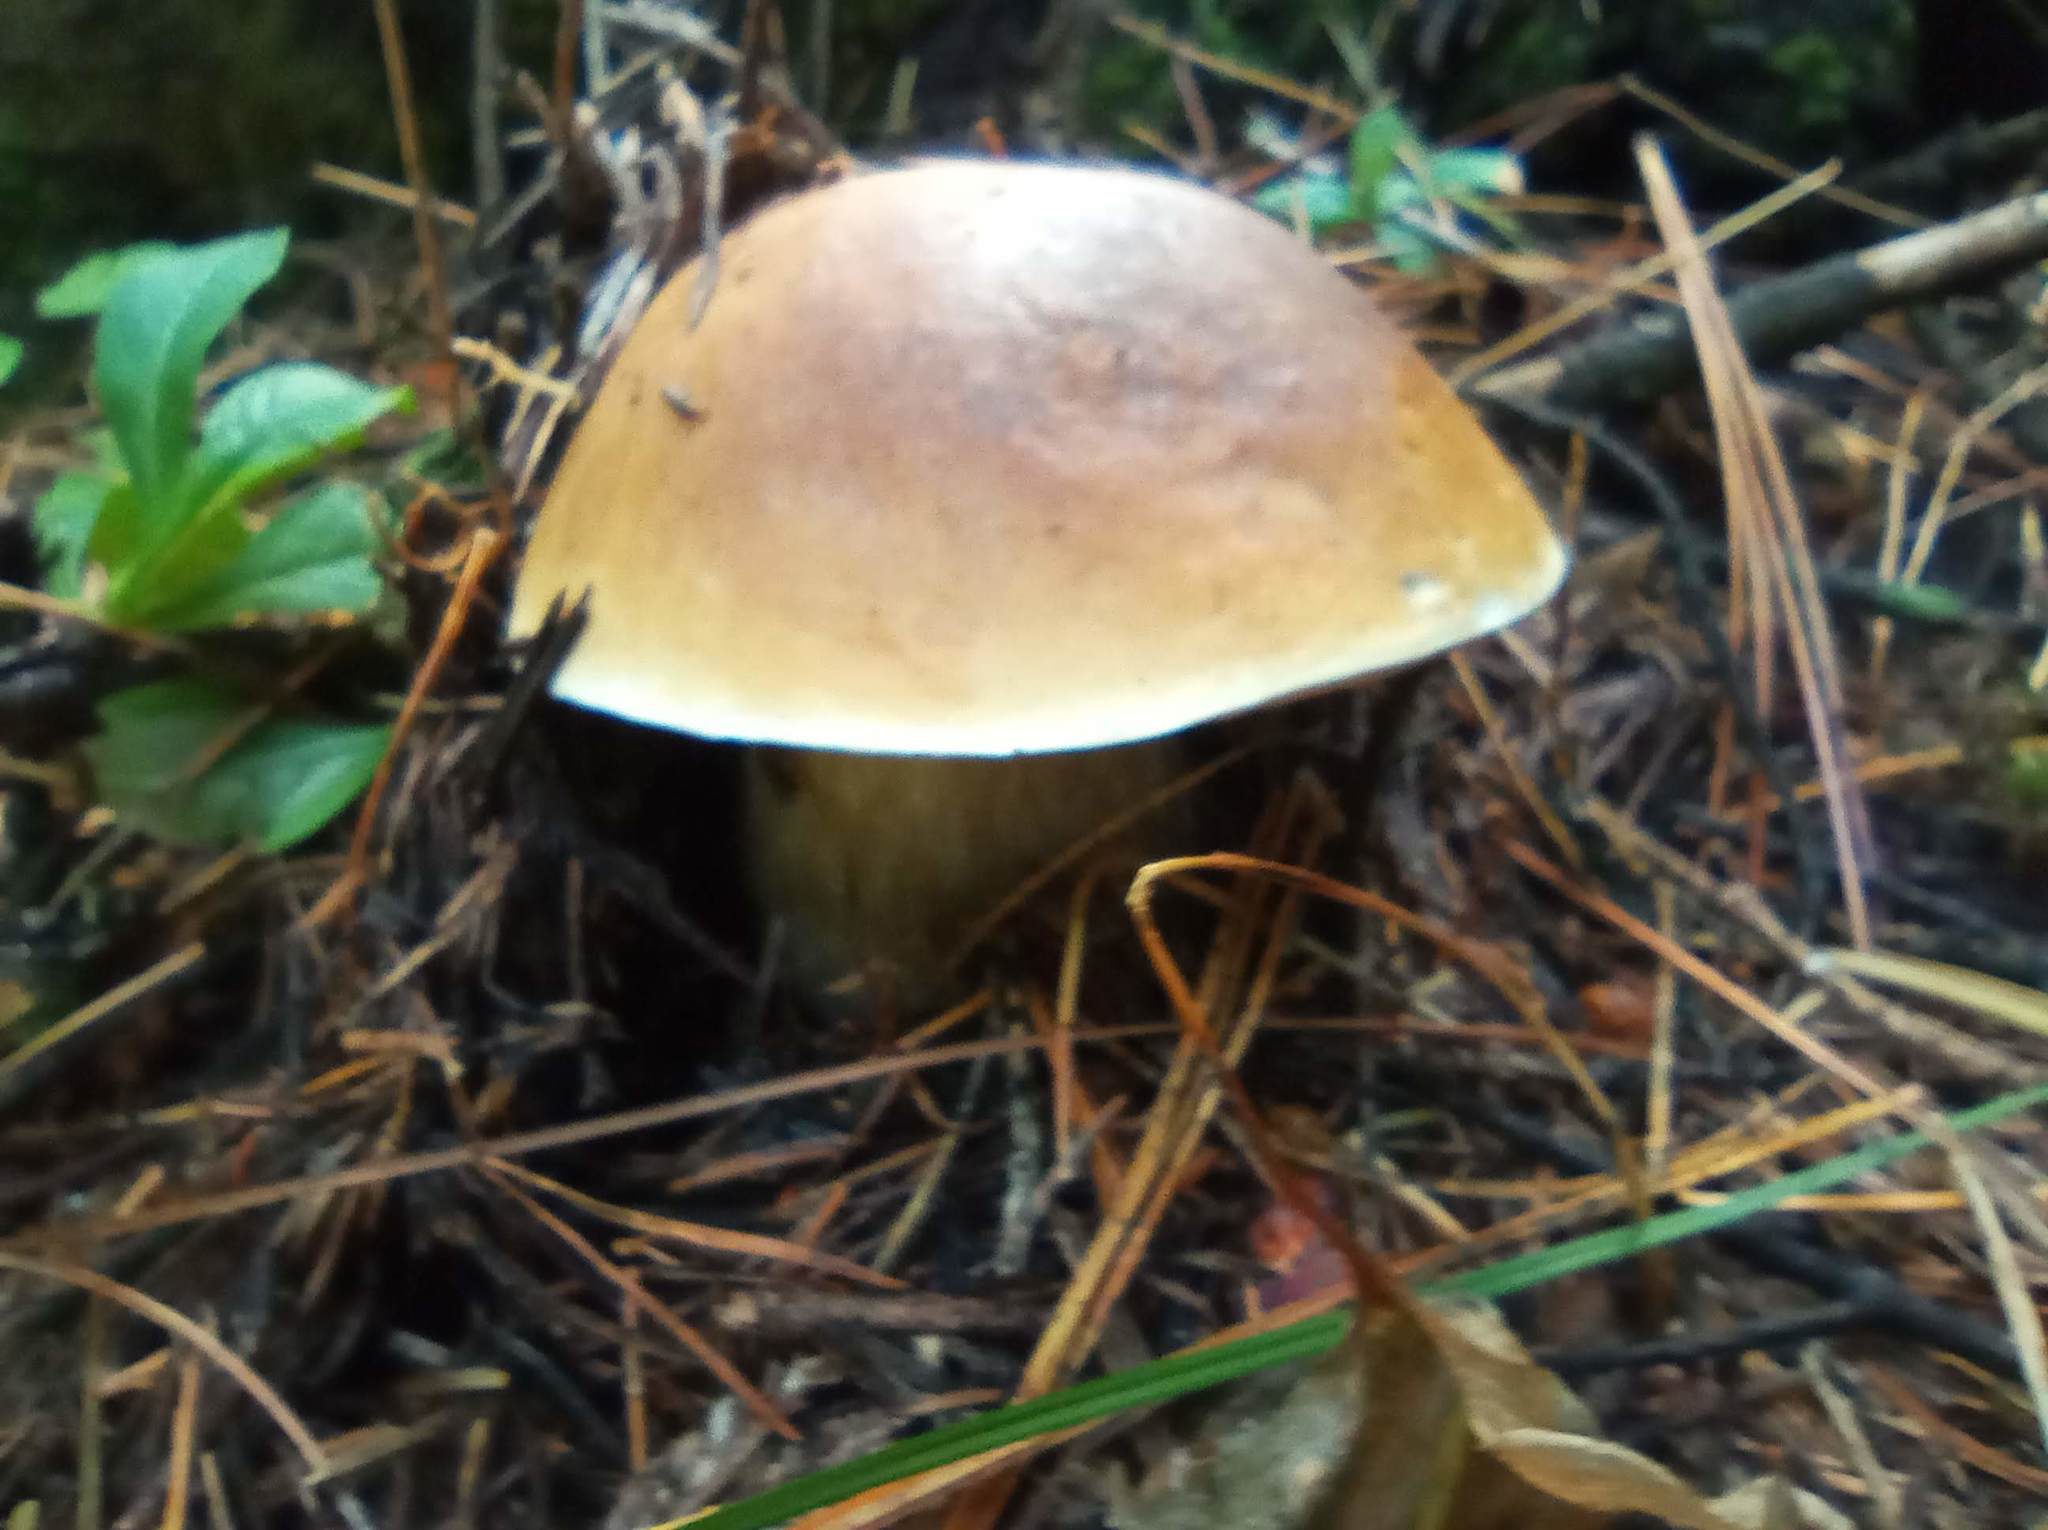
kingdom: Fungi
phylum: Basidiomycota
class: Agaricomycetes
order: Boletales
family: Boletaceae
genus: Boletus
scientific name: Boletus edulis
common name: Cep
